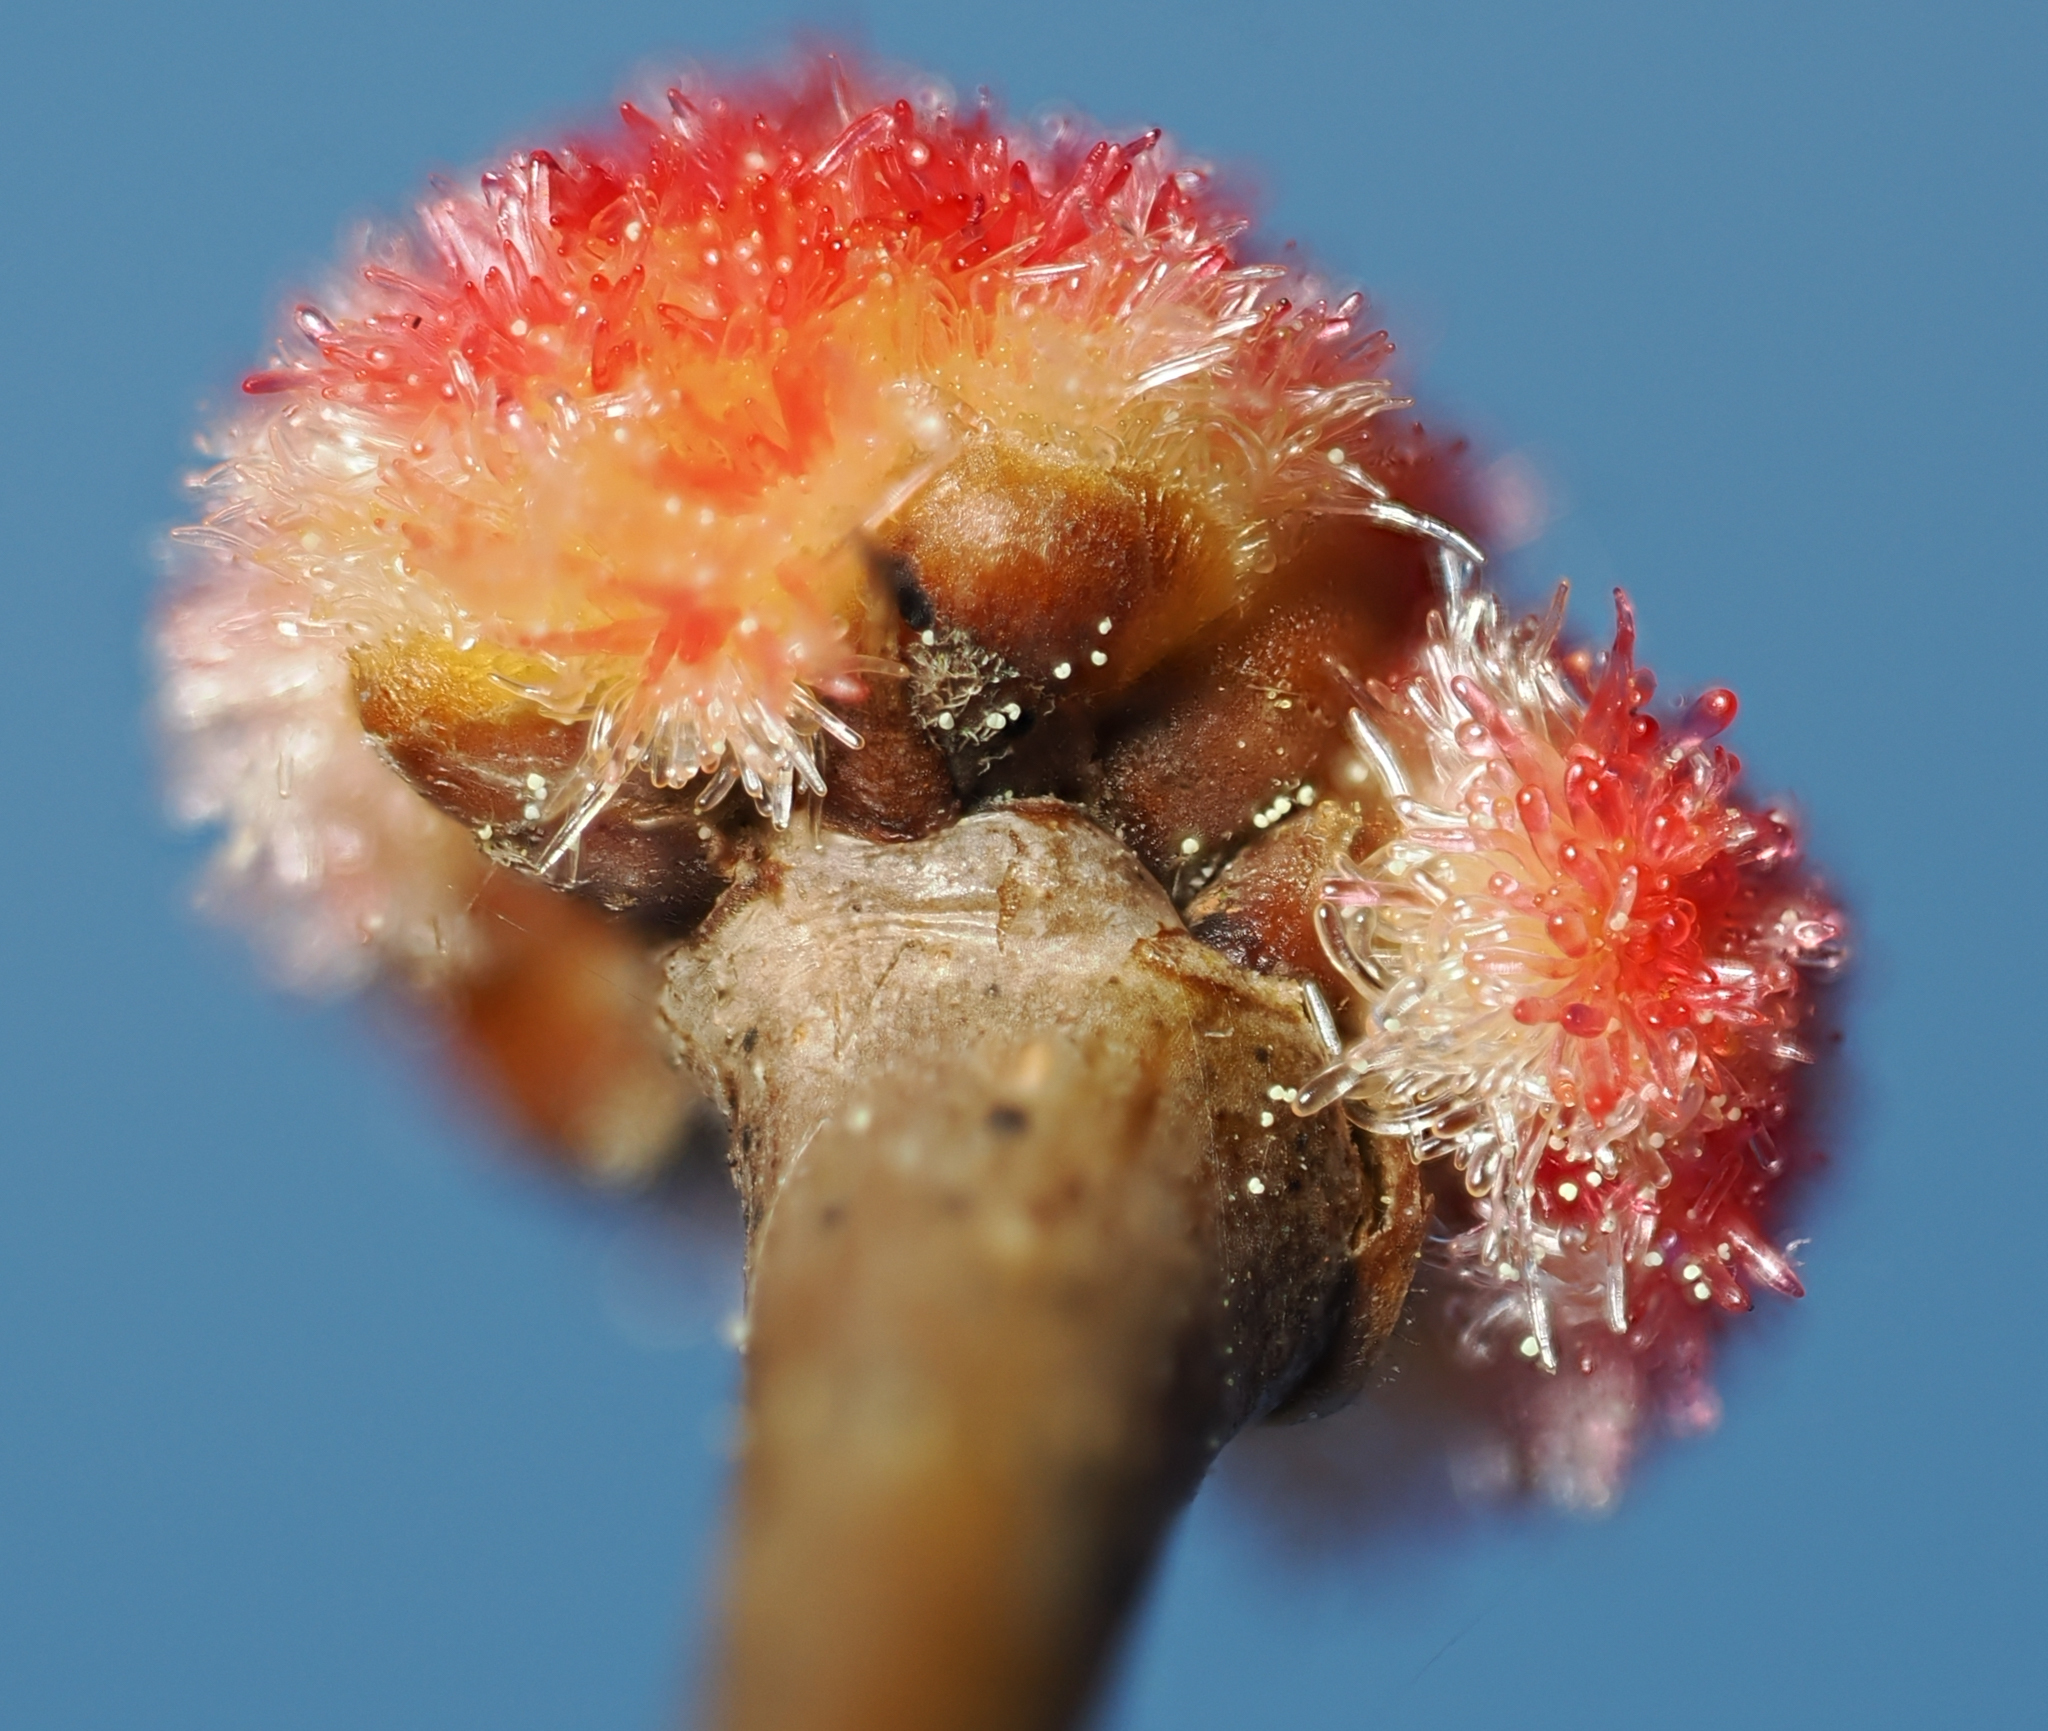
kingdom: Animalia
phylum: Arthropoda
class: Insecta
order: Hymenoptera
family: Cynipidae
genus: Callirhytis
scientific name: Callirhytis
